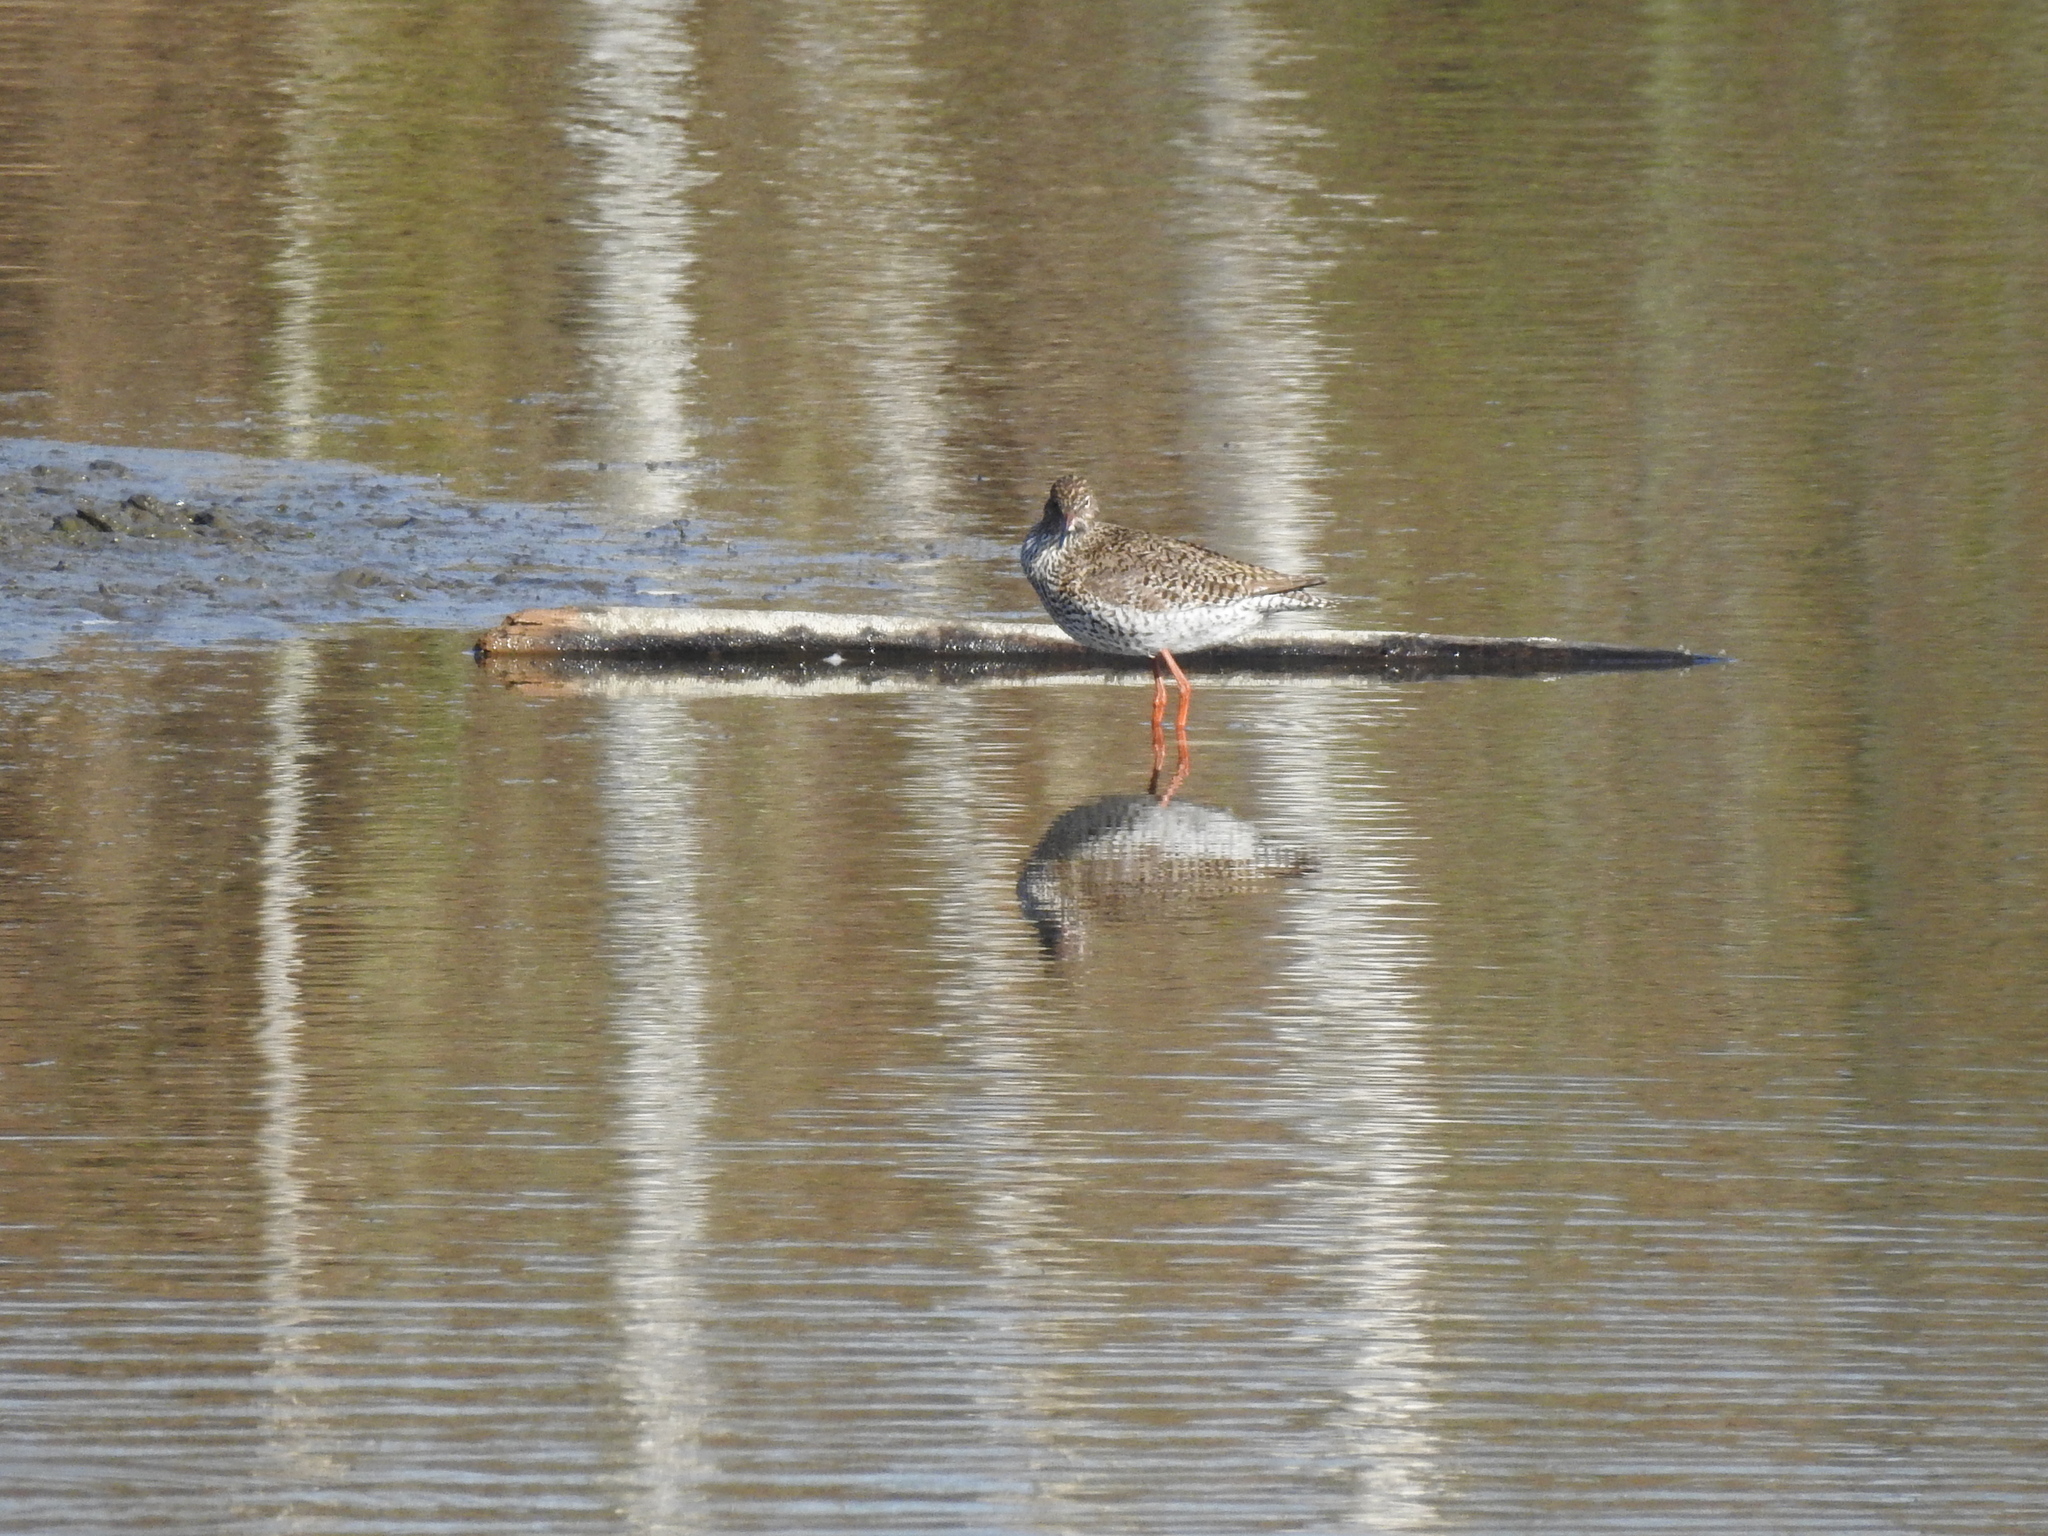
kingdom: Animalia
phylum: Chordata
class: Aves
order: Charadriiformes
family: Scolopacidae
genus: Tringa
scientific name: Tringa totanus
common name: Common redshank
